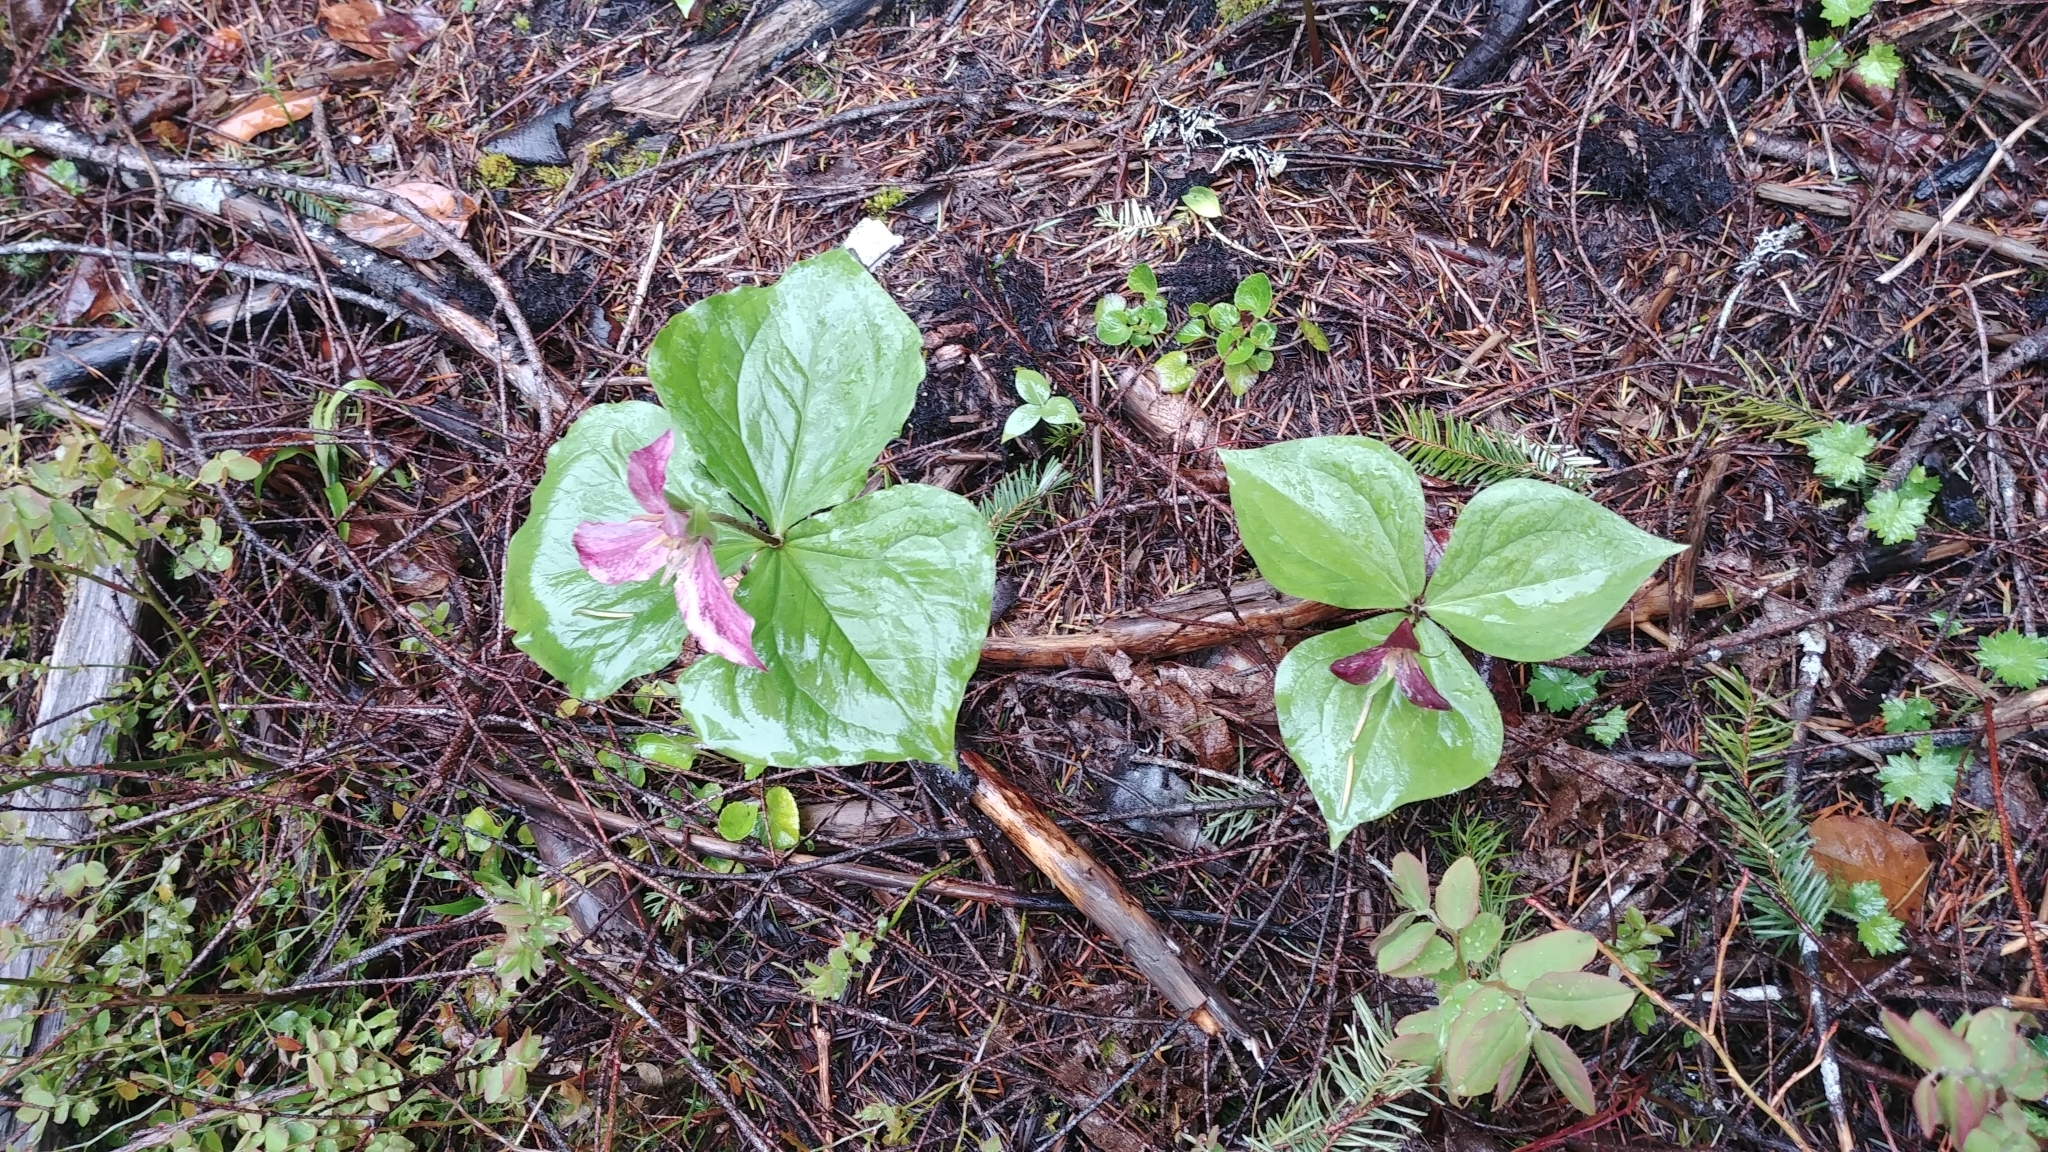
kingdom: Plantae
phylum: Tracheophyta
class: Liliopsida
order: Liliales
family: Melanthiaceae
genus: Trillium
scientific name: Trillium ovatum
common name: Pacific trillium
